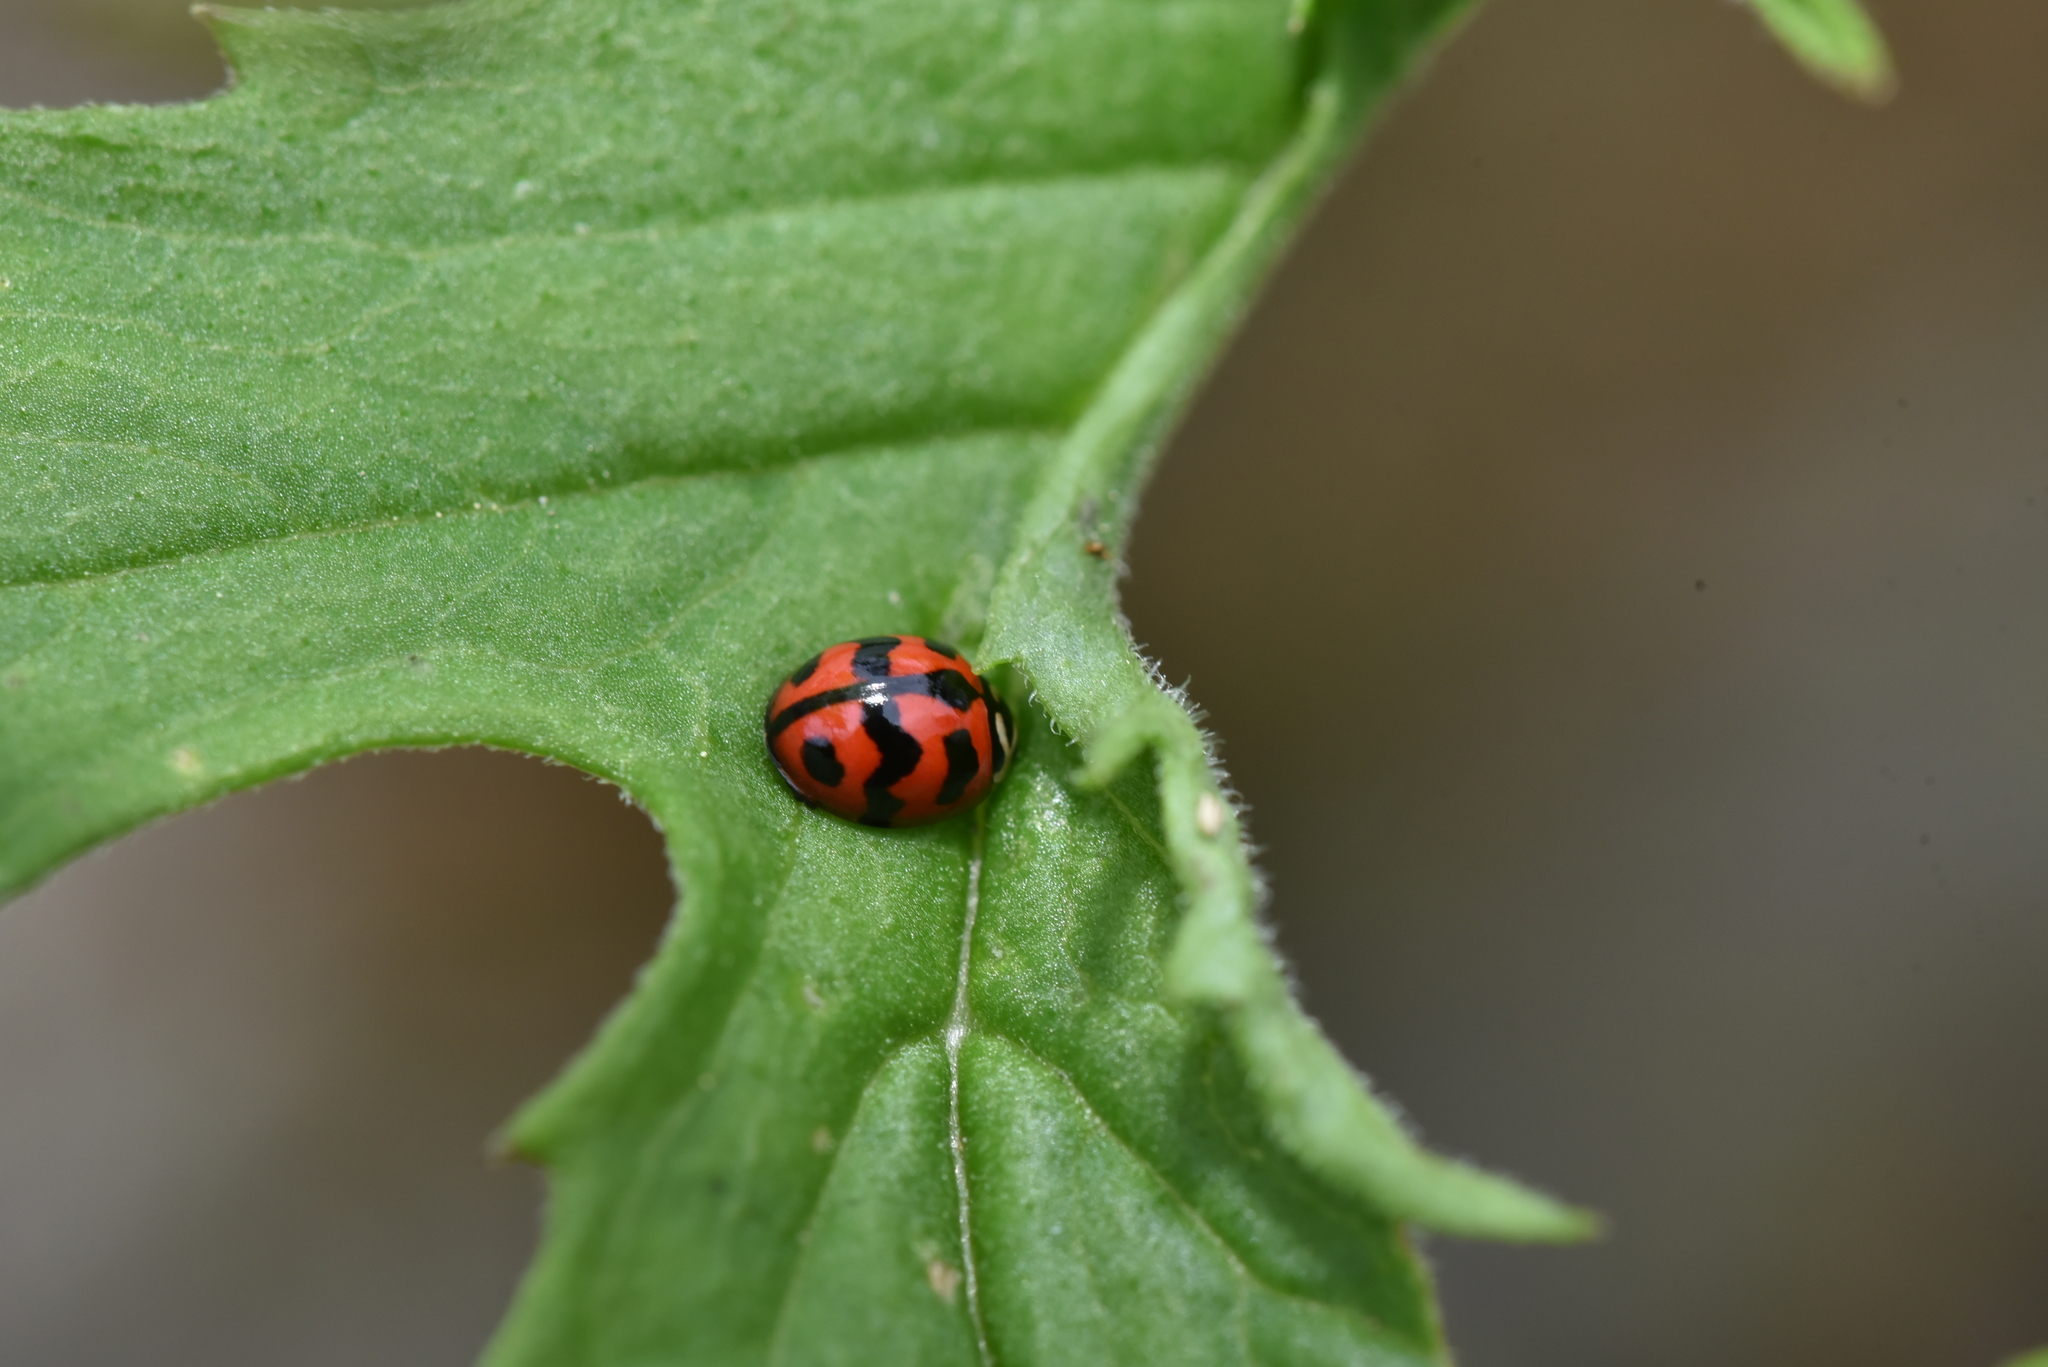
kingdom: Animalia
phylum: Arthropoda
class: Insecta
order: Coleoptera
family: Coccinellidae
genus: Cheilomenes
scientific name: Cheilomenes sexmaculata
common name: Ladybird beetle
